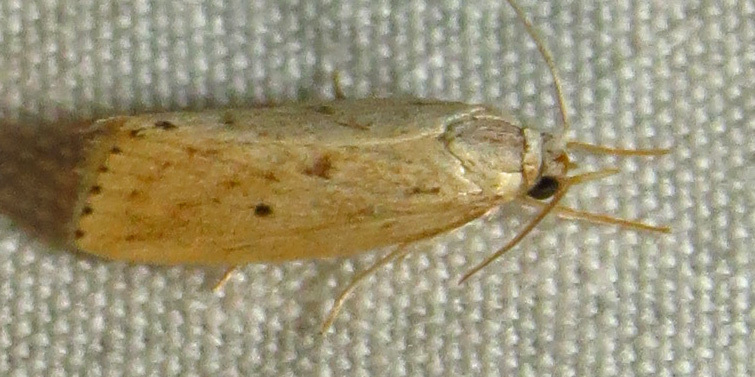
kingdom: Animalia
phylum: Arthropoda
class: Insecta
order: Lepidoptera
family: Crambidae
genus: Diatraea
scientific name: Diatraea lisetta
